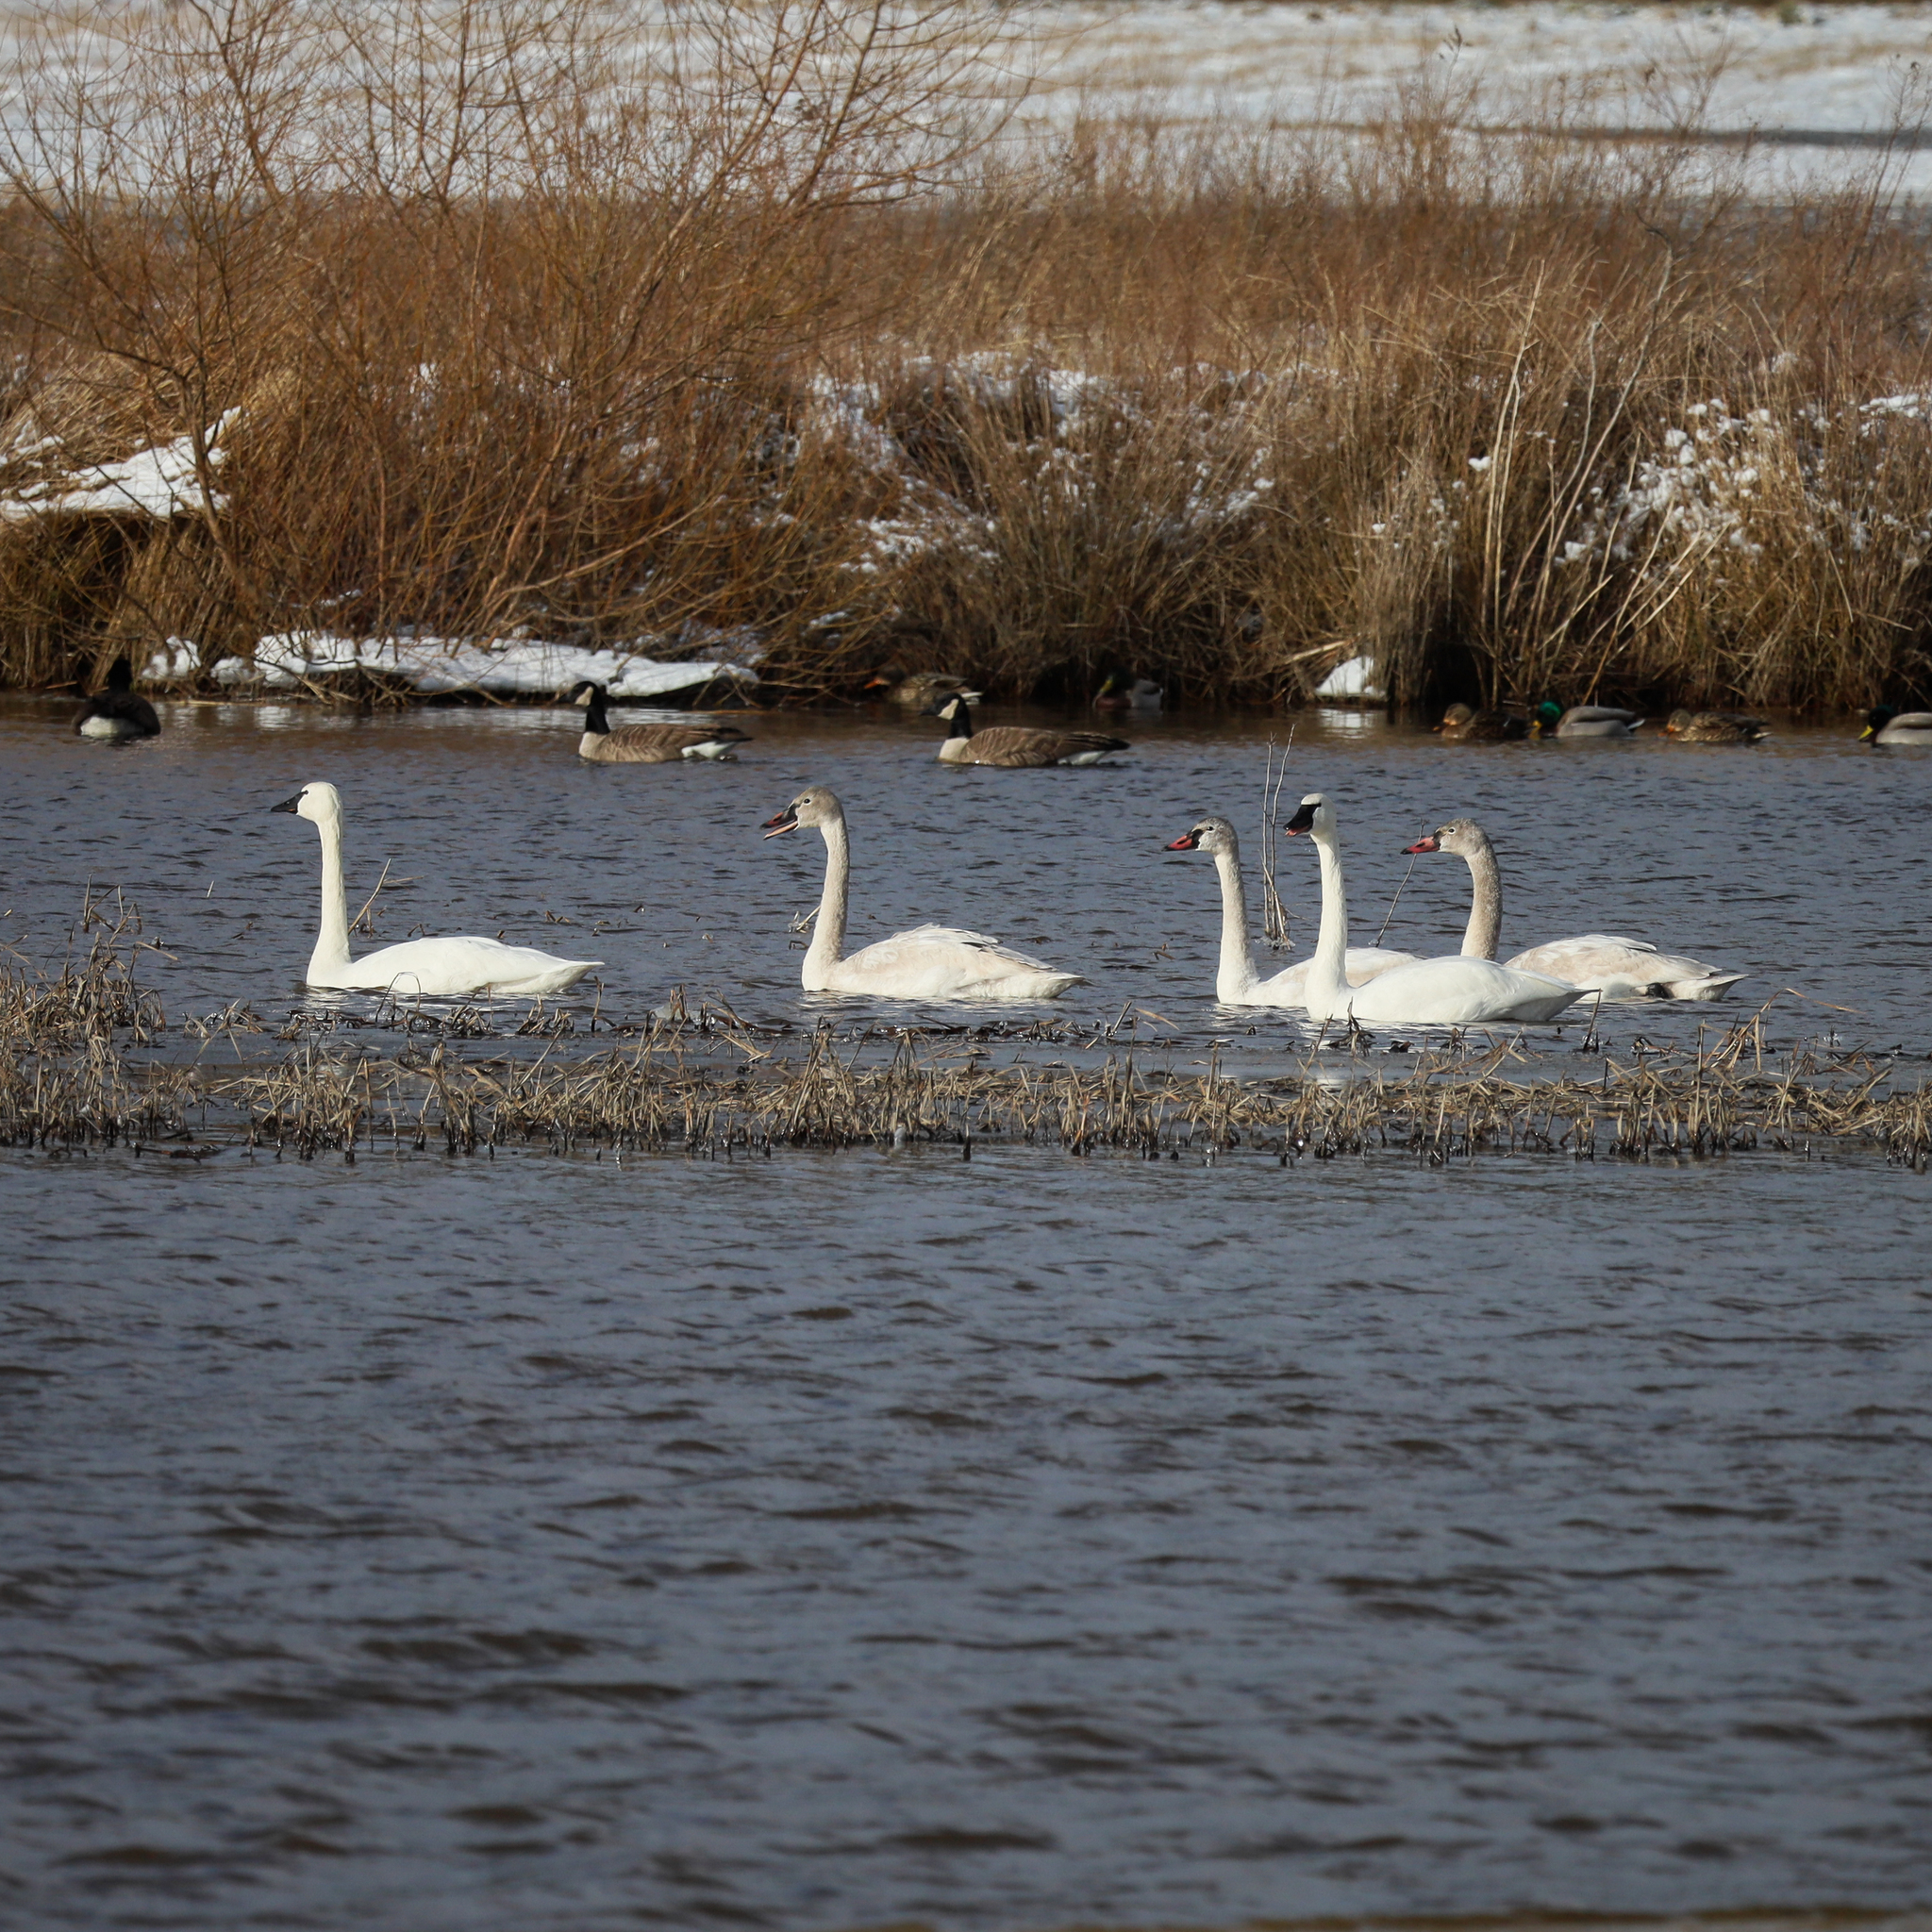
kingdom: Animalia
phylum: Chordata
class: Aves
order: Anseriformes
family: Anatidae
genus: Cygnus
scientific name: Cygnus columbianus
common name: Tundra swan
